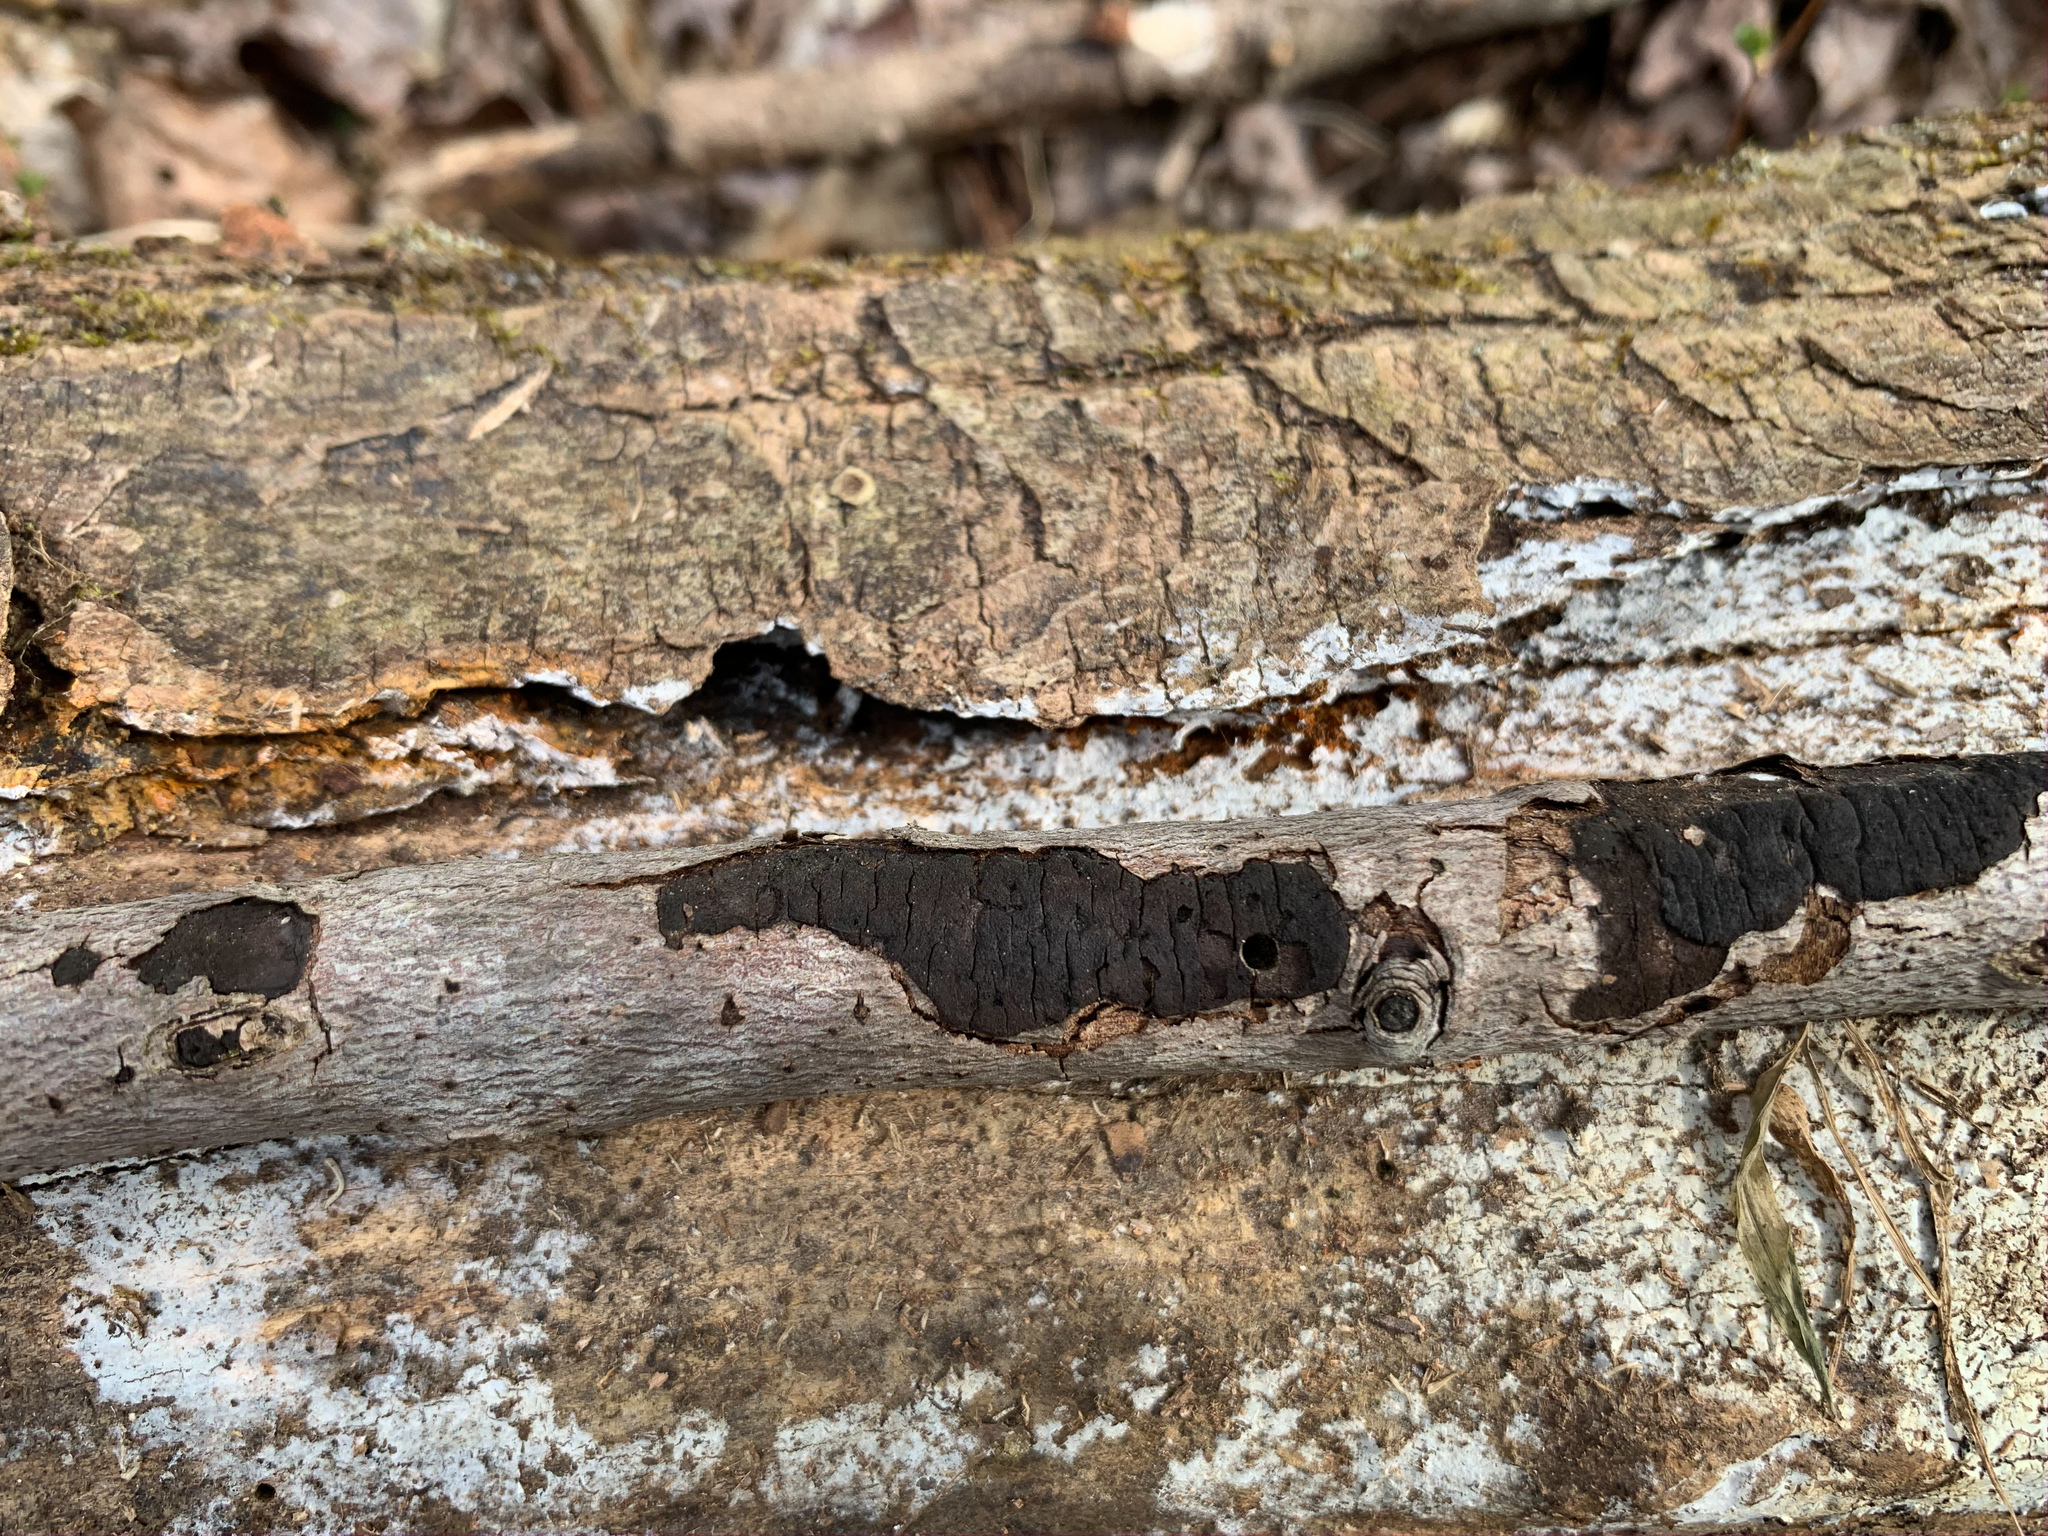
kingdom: Fungi
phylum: Ascomycota
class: Sordariomycetes
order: Xylariales
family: Diatrypaceae
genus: Diatrype
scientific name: Diatrype stigma
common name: Common tarcrust
